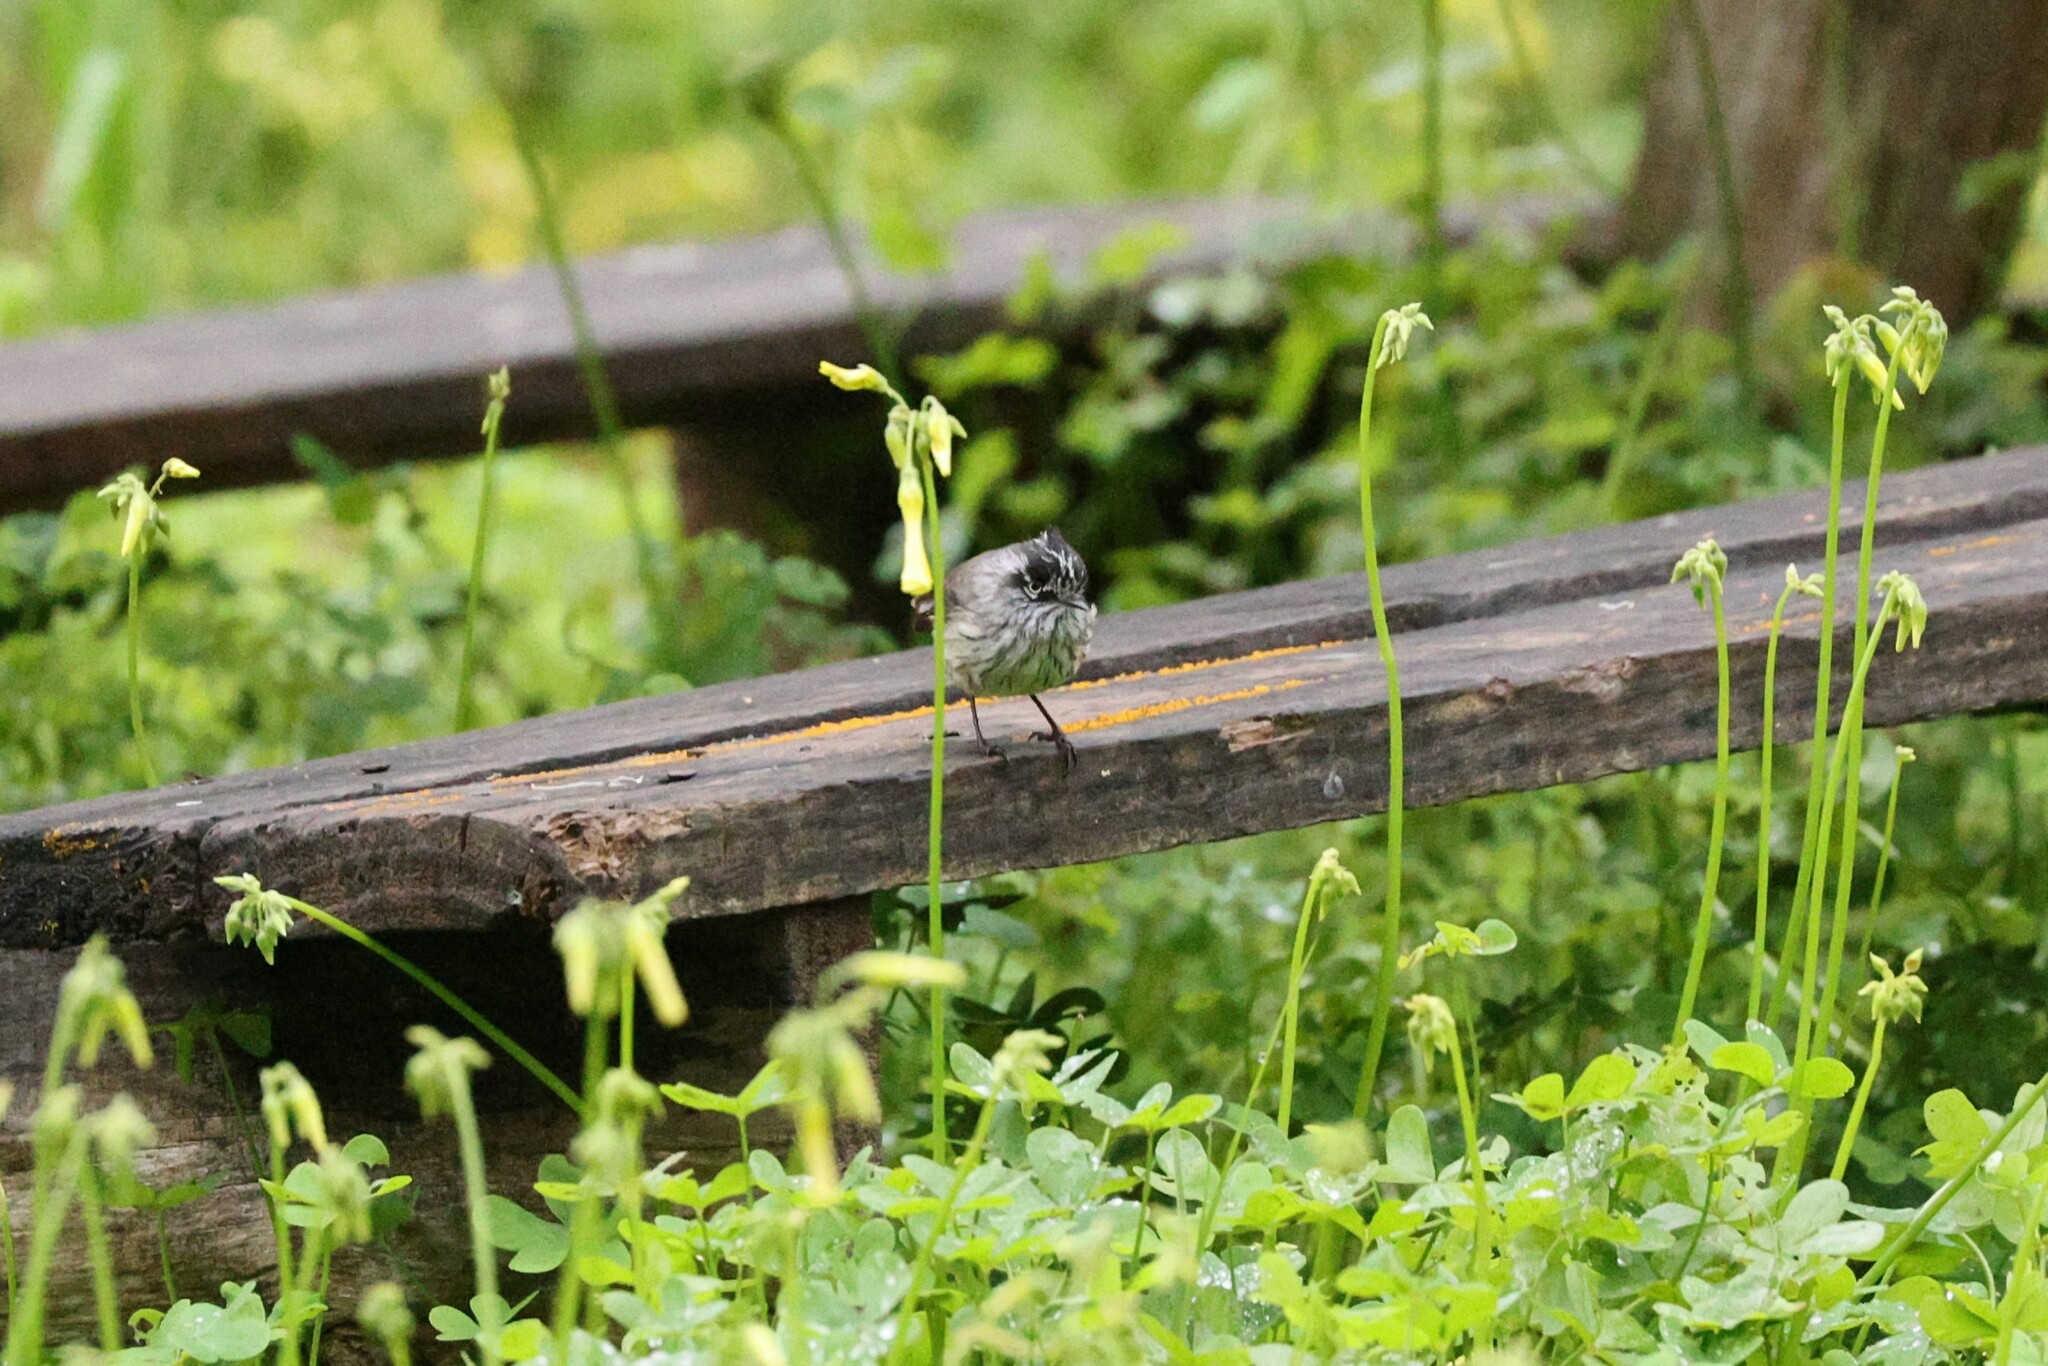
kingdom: Animalia
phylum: Chordata
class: Aves
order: Passeriformes
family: Tyrannidae
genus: Anairetes
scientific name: Anairetes parulus
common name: Tufted tit-tyrant
